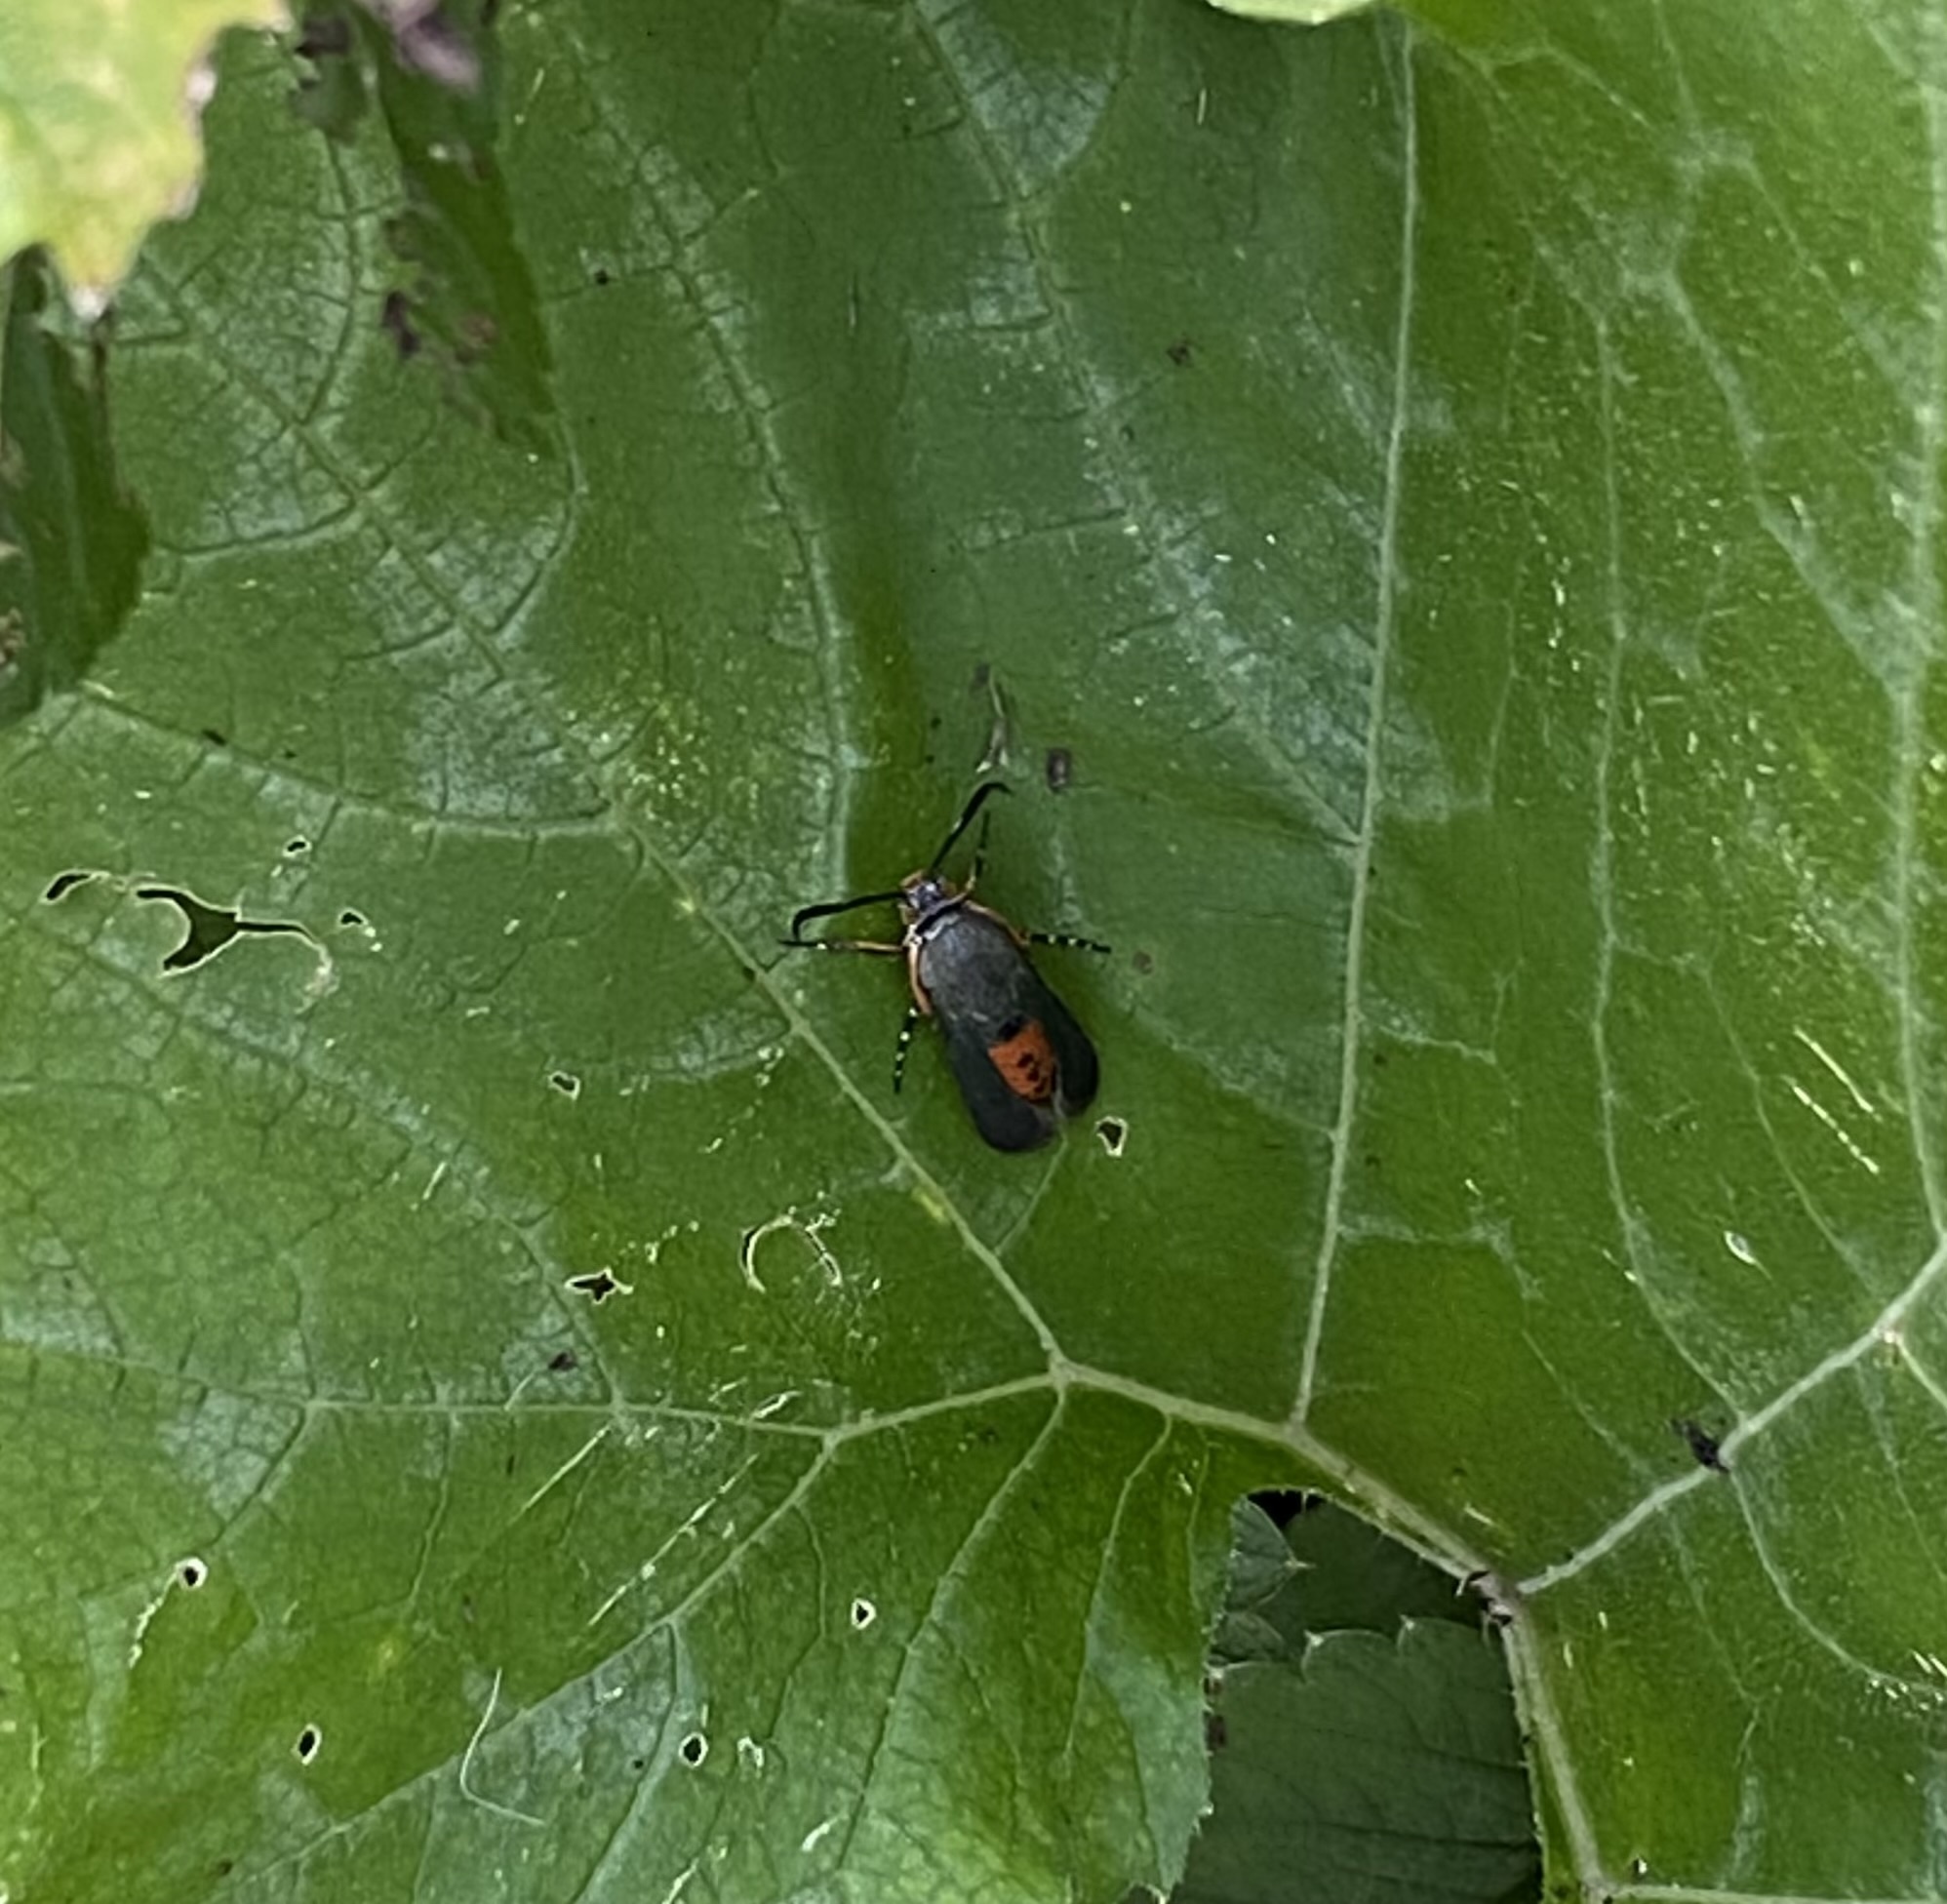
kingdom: Animalia
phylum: Arthropoda
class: Insecta
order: Lepidoptera
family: Sesiidae
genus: Eichlinia
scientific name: Eichlinia cucurbitae
